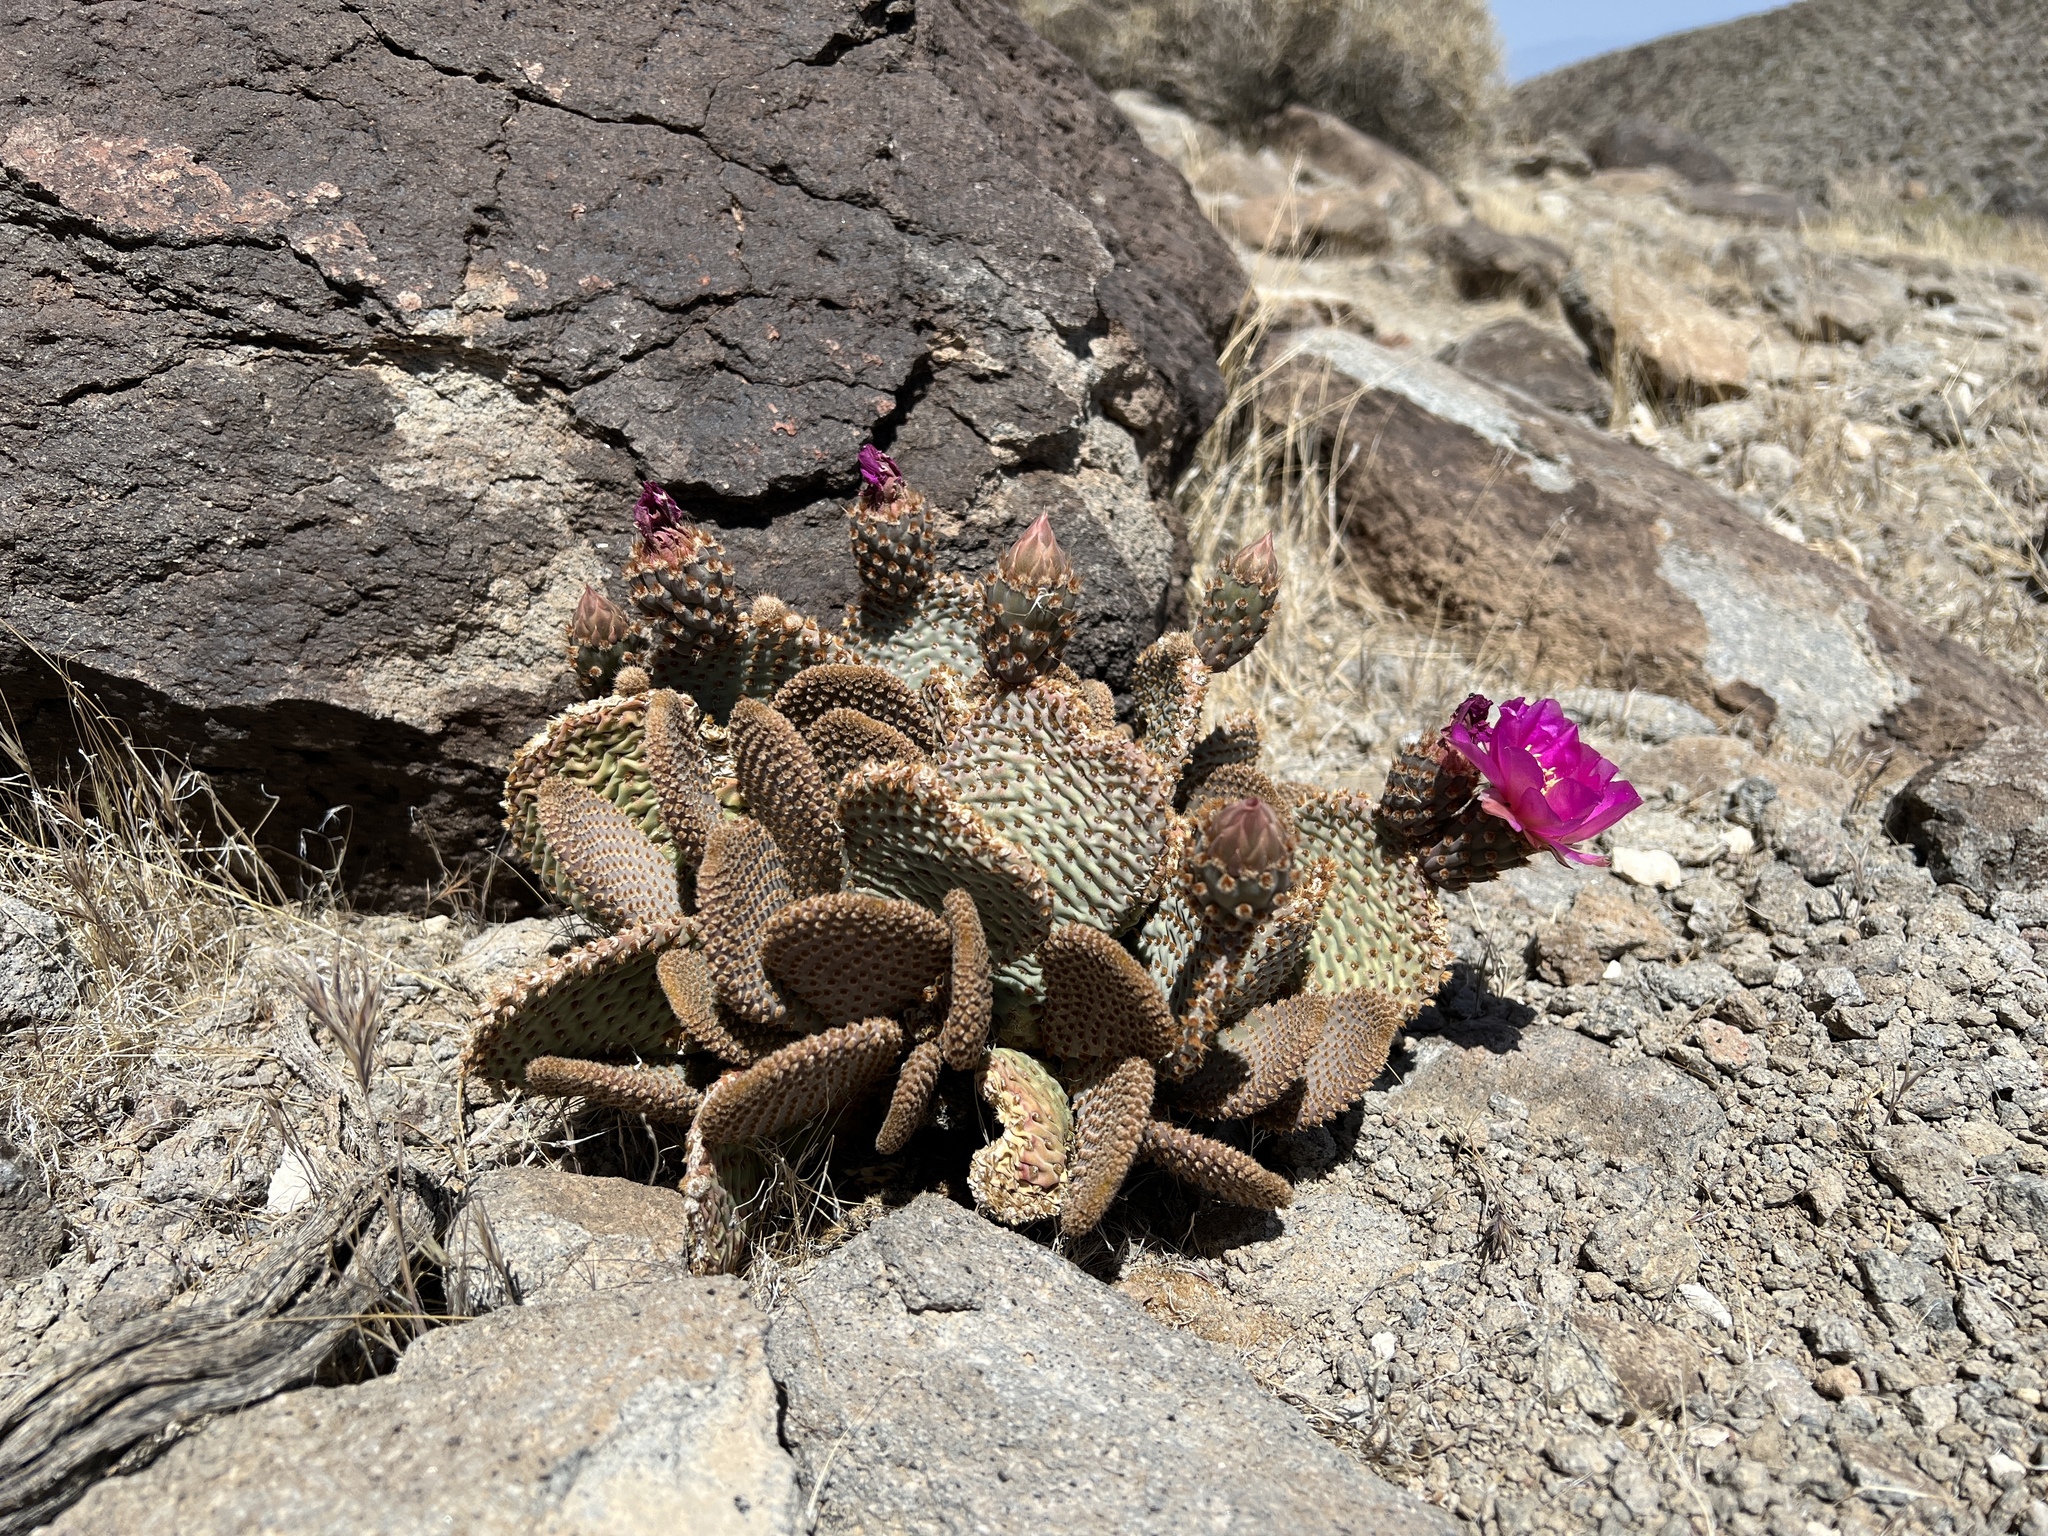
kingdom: Plantae
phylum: Tracheophyta
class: Magnoliopsida
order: Caryophyllales
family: Cactaceae
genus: Opuntia
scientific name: Opuntia basilaris
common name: Beavertail prickly-pear
